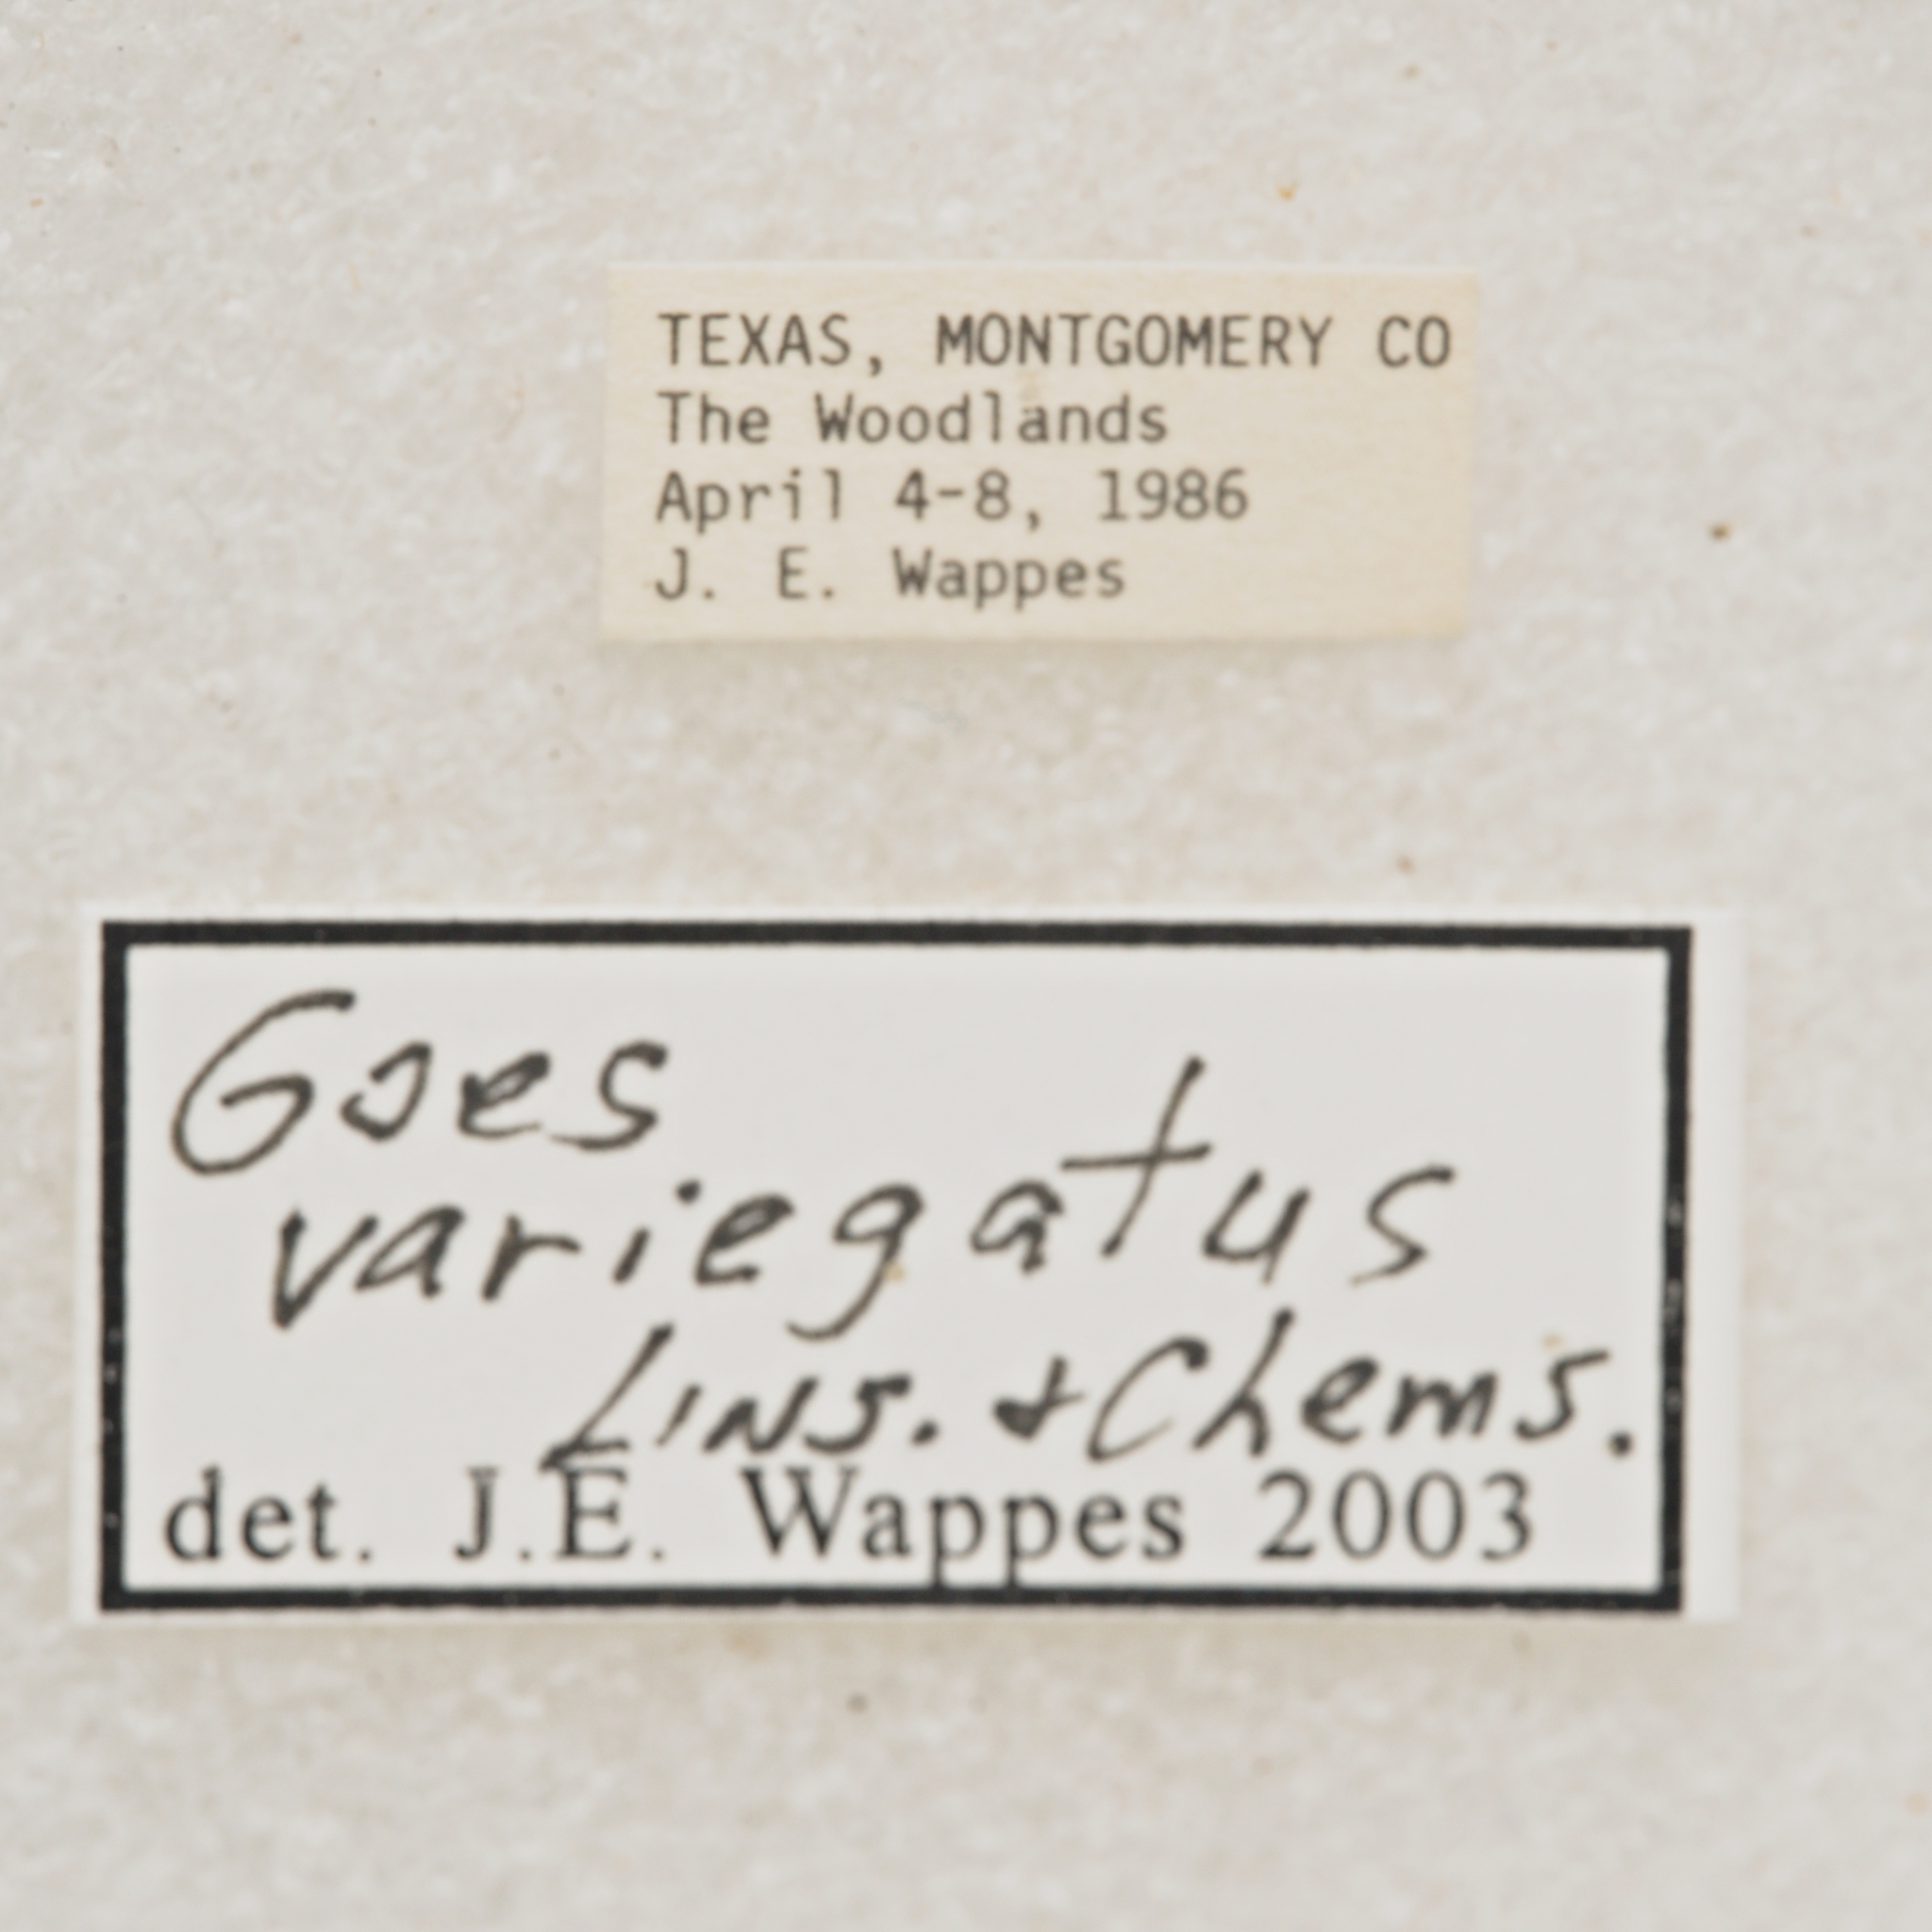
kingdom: Animalia
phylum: Arthropoda
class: Insecta
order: Coleoptera
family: Cerambycidae
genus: Goes
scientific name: Goes variegatus
